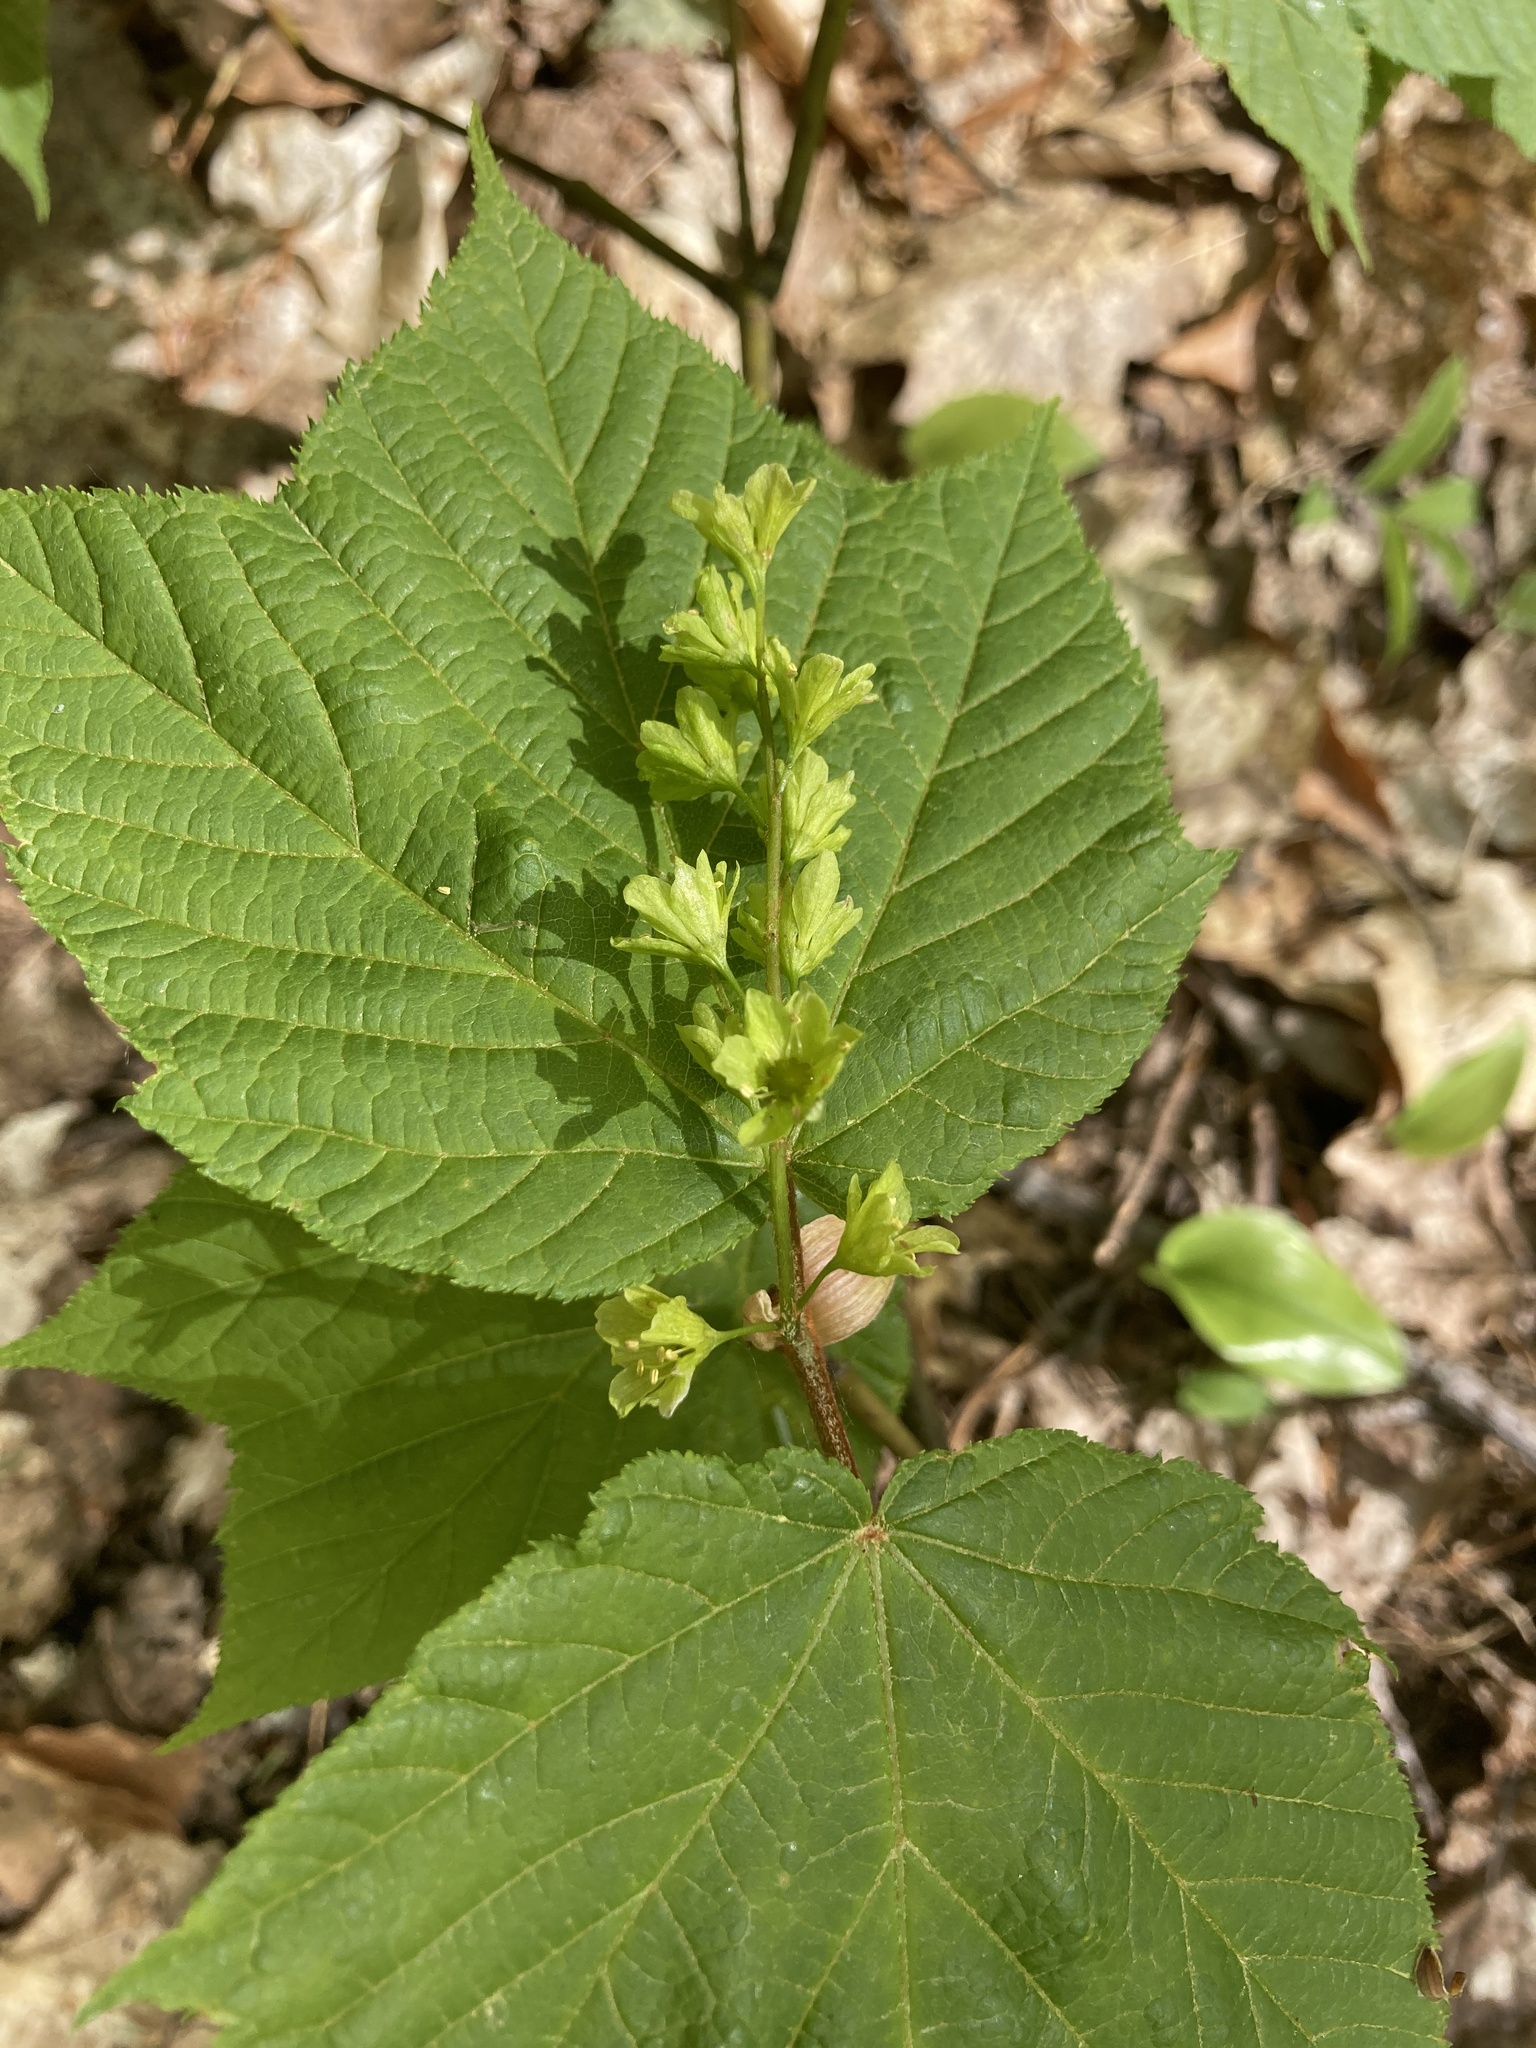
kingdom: Plantae
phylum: Tracheophyta
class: Magnoliopsida
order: Sapindales
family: Sapindaceae
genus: Acer
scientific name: Acer pensylvanicum
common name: Moosewood
